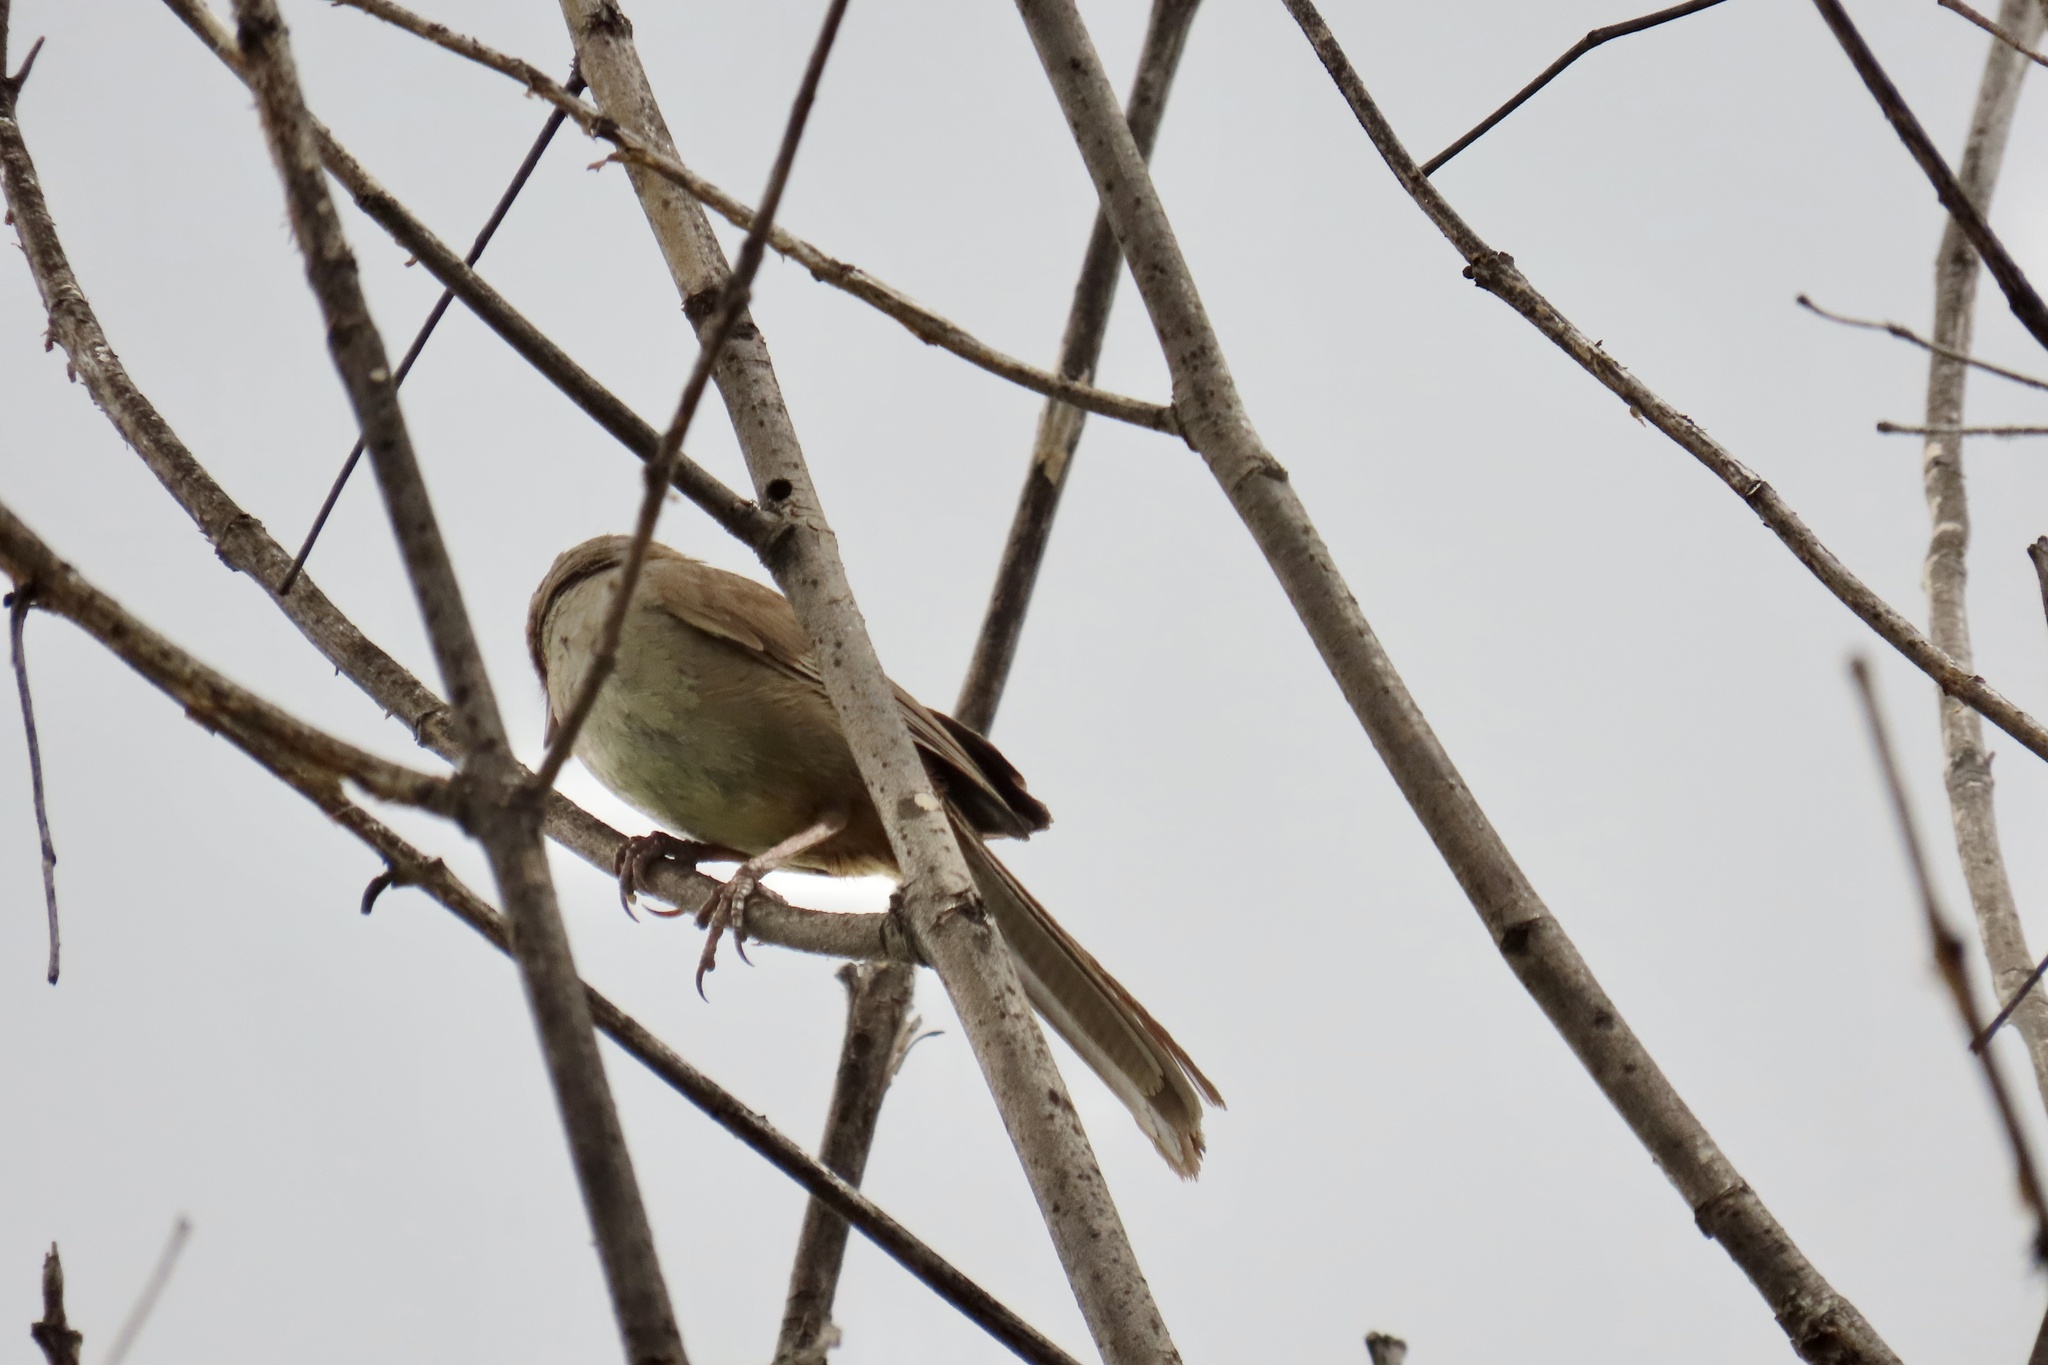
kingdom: Animalia
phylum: Chordata
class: Aves
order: Passeriformes
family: Passerellidae
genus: Melozone
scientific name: Melozone crissalis
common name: California towhee
